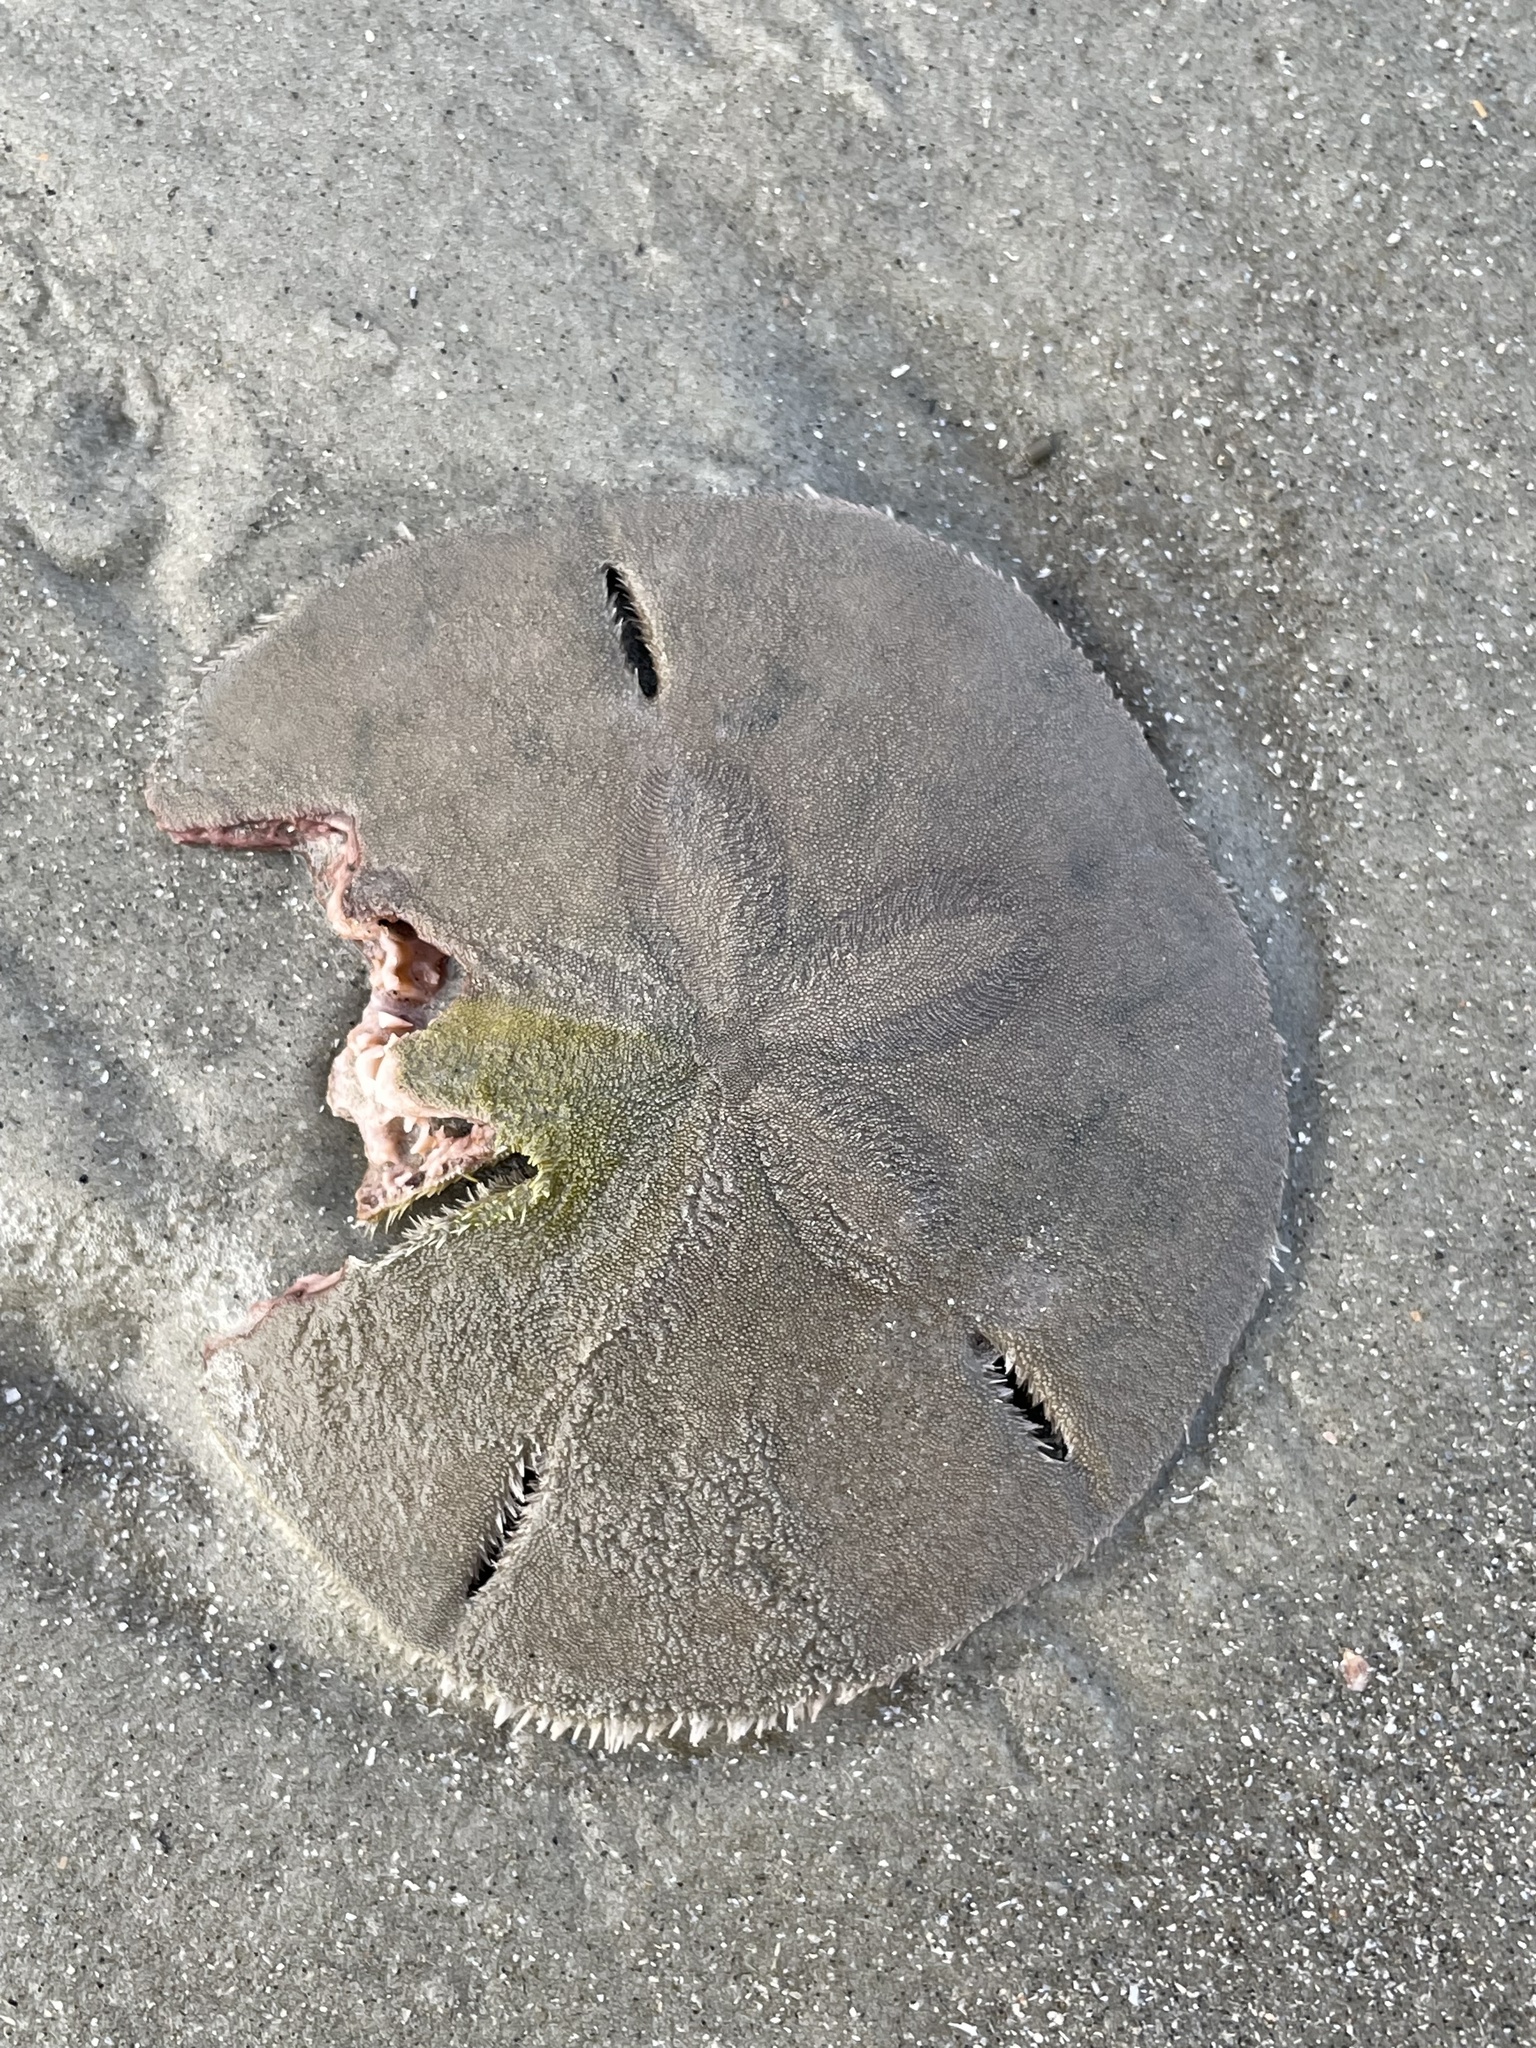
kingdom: Animalia
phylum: Echinodermata
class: Echinoidea
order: Echinolampadacea
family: Mellitidae
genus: Mellita
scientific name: Mellita isometra
